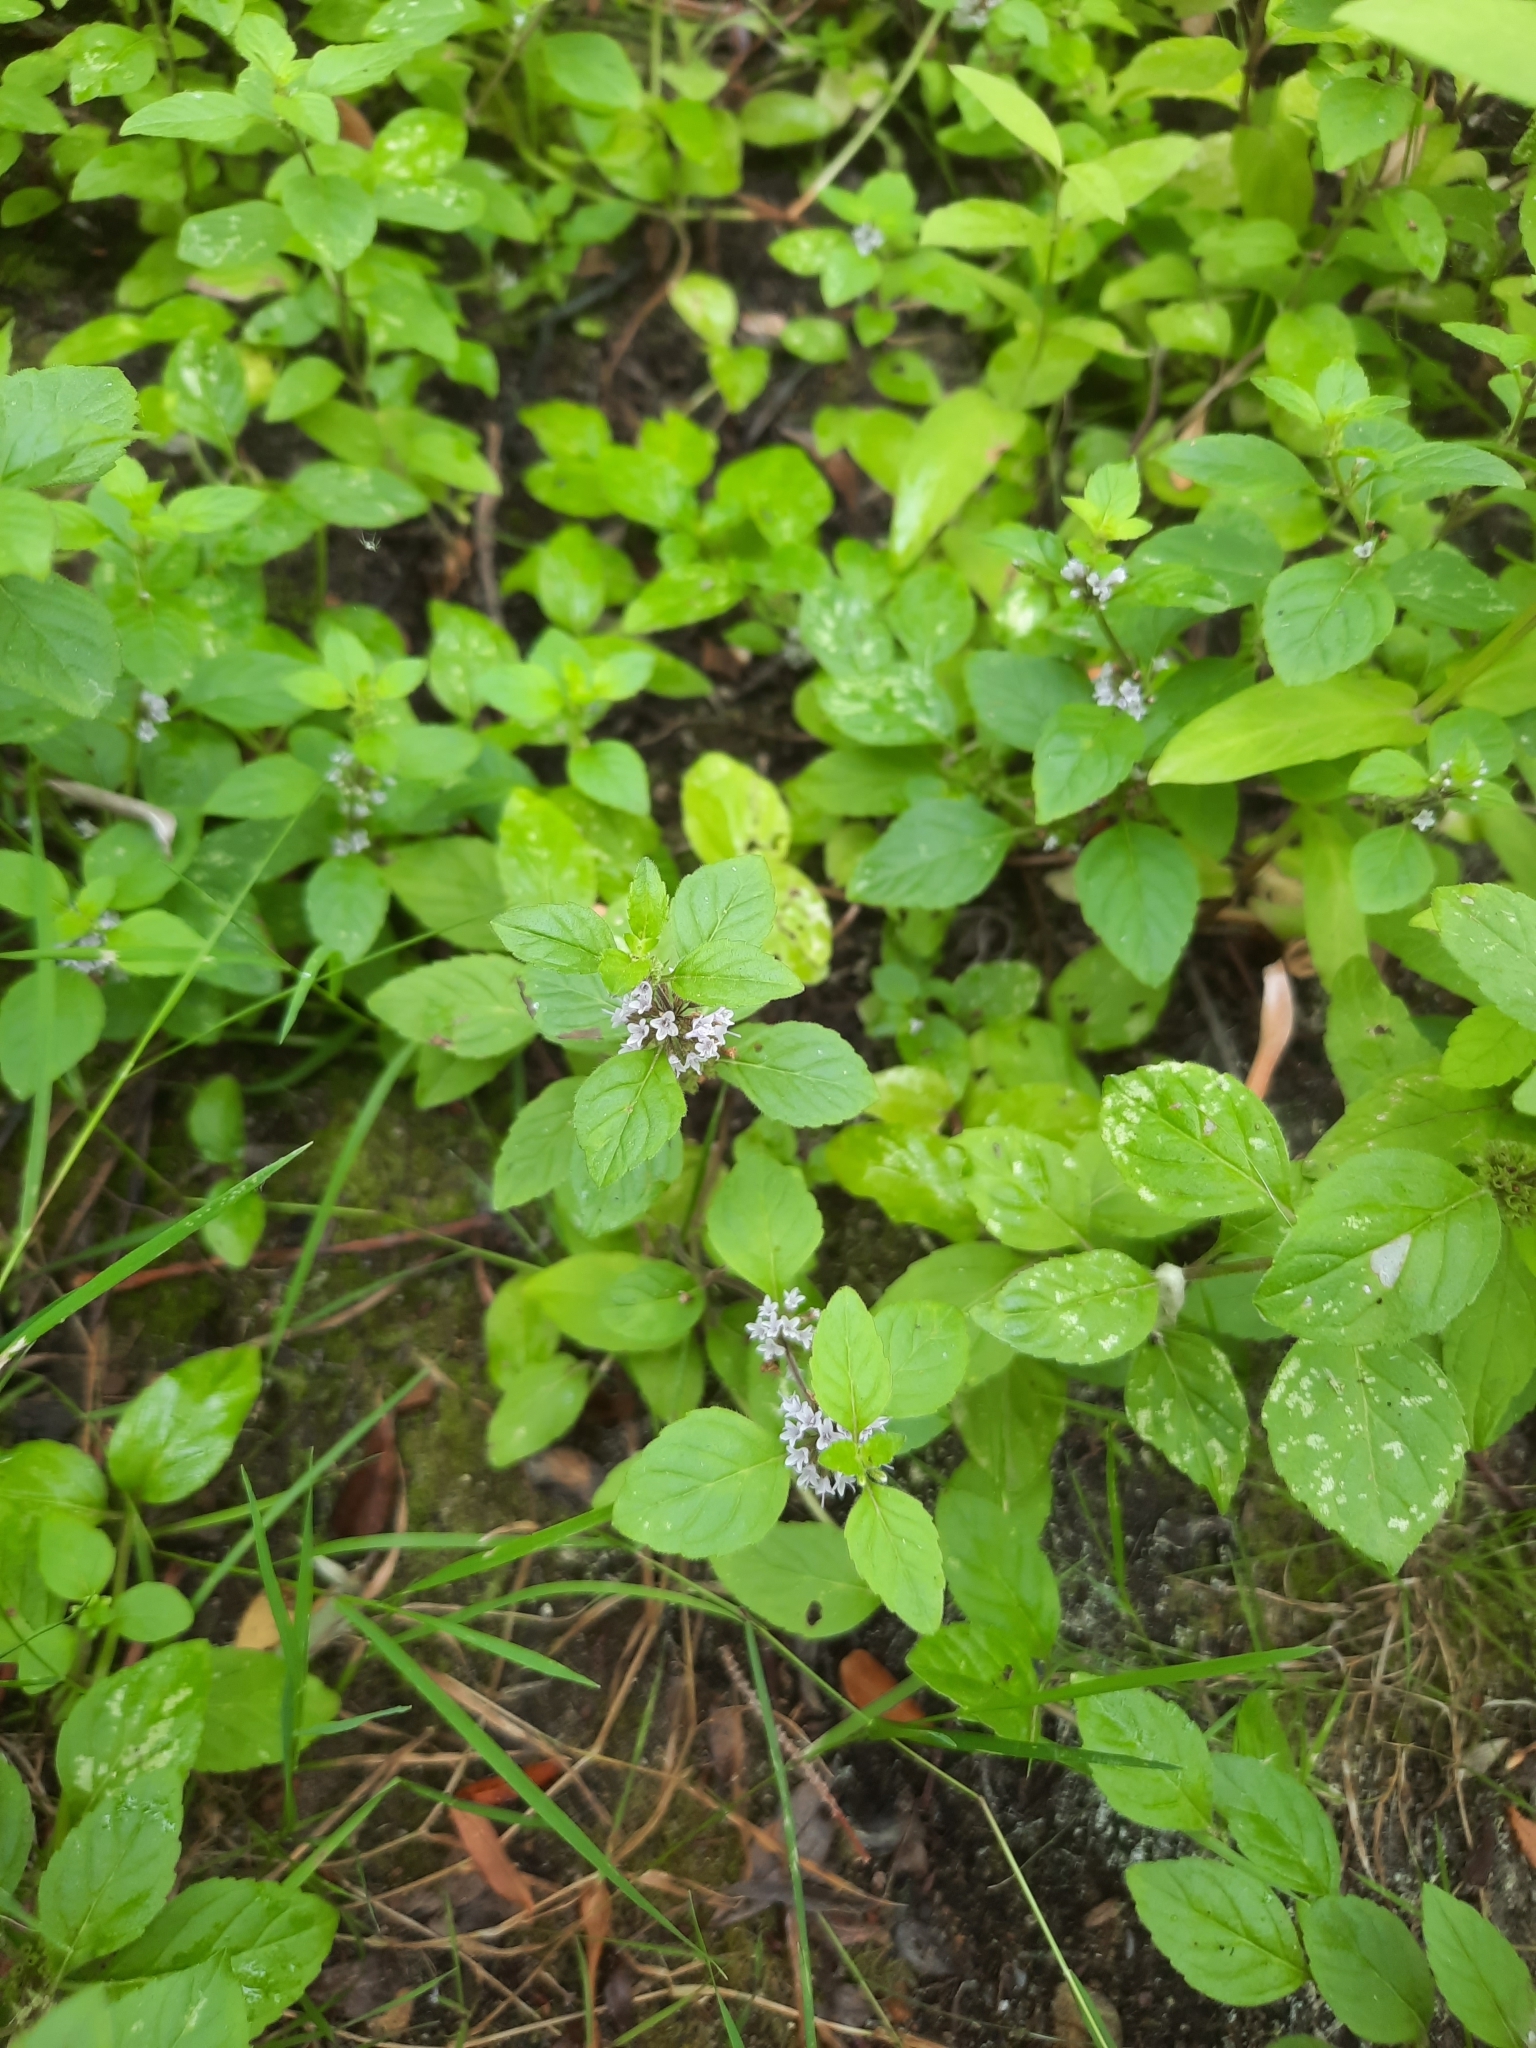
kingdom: Plantae
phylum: Tracheophyta
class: Magnoliopsida
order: Lamiales
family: Lamiaceae
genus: Mentha
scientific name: Mentha arvensis
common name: Corn mint
